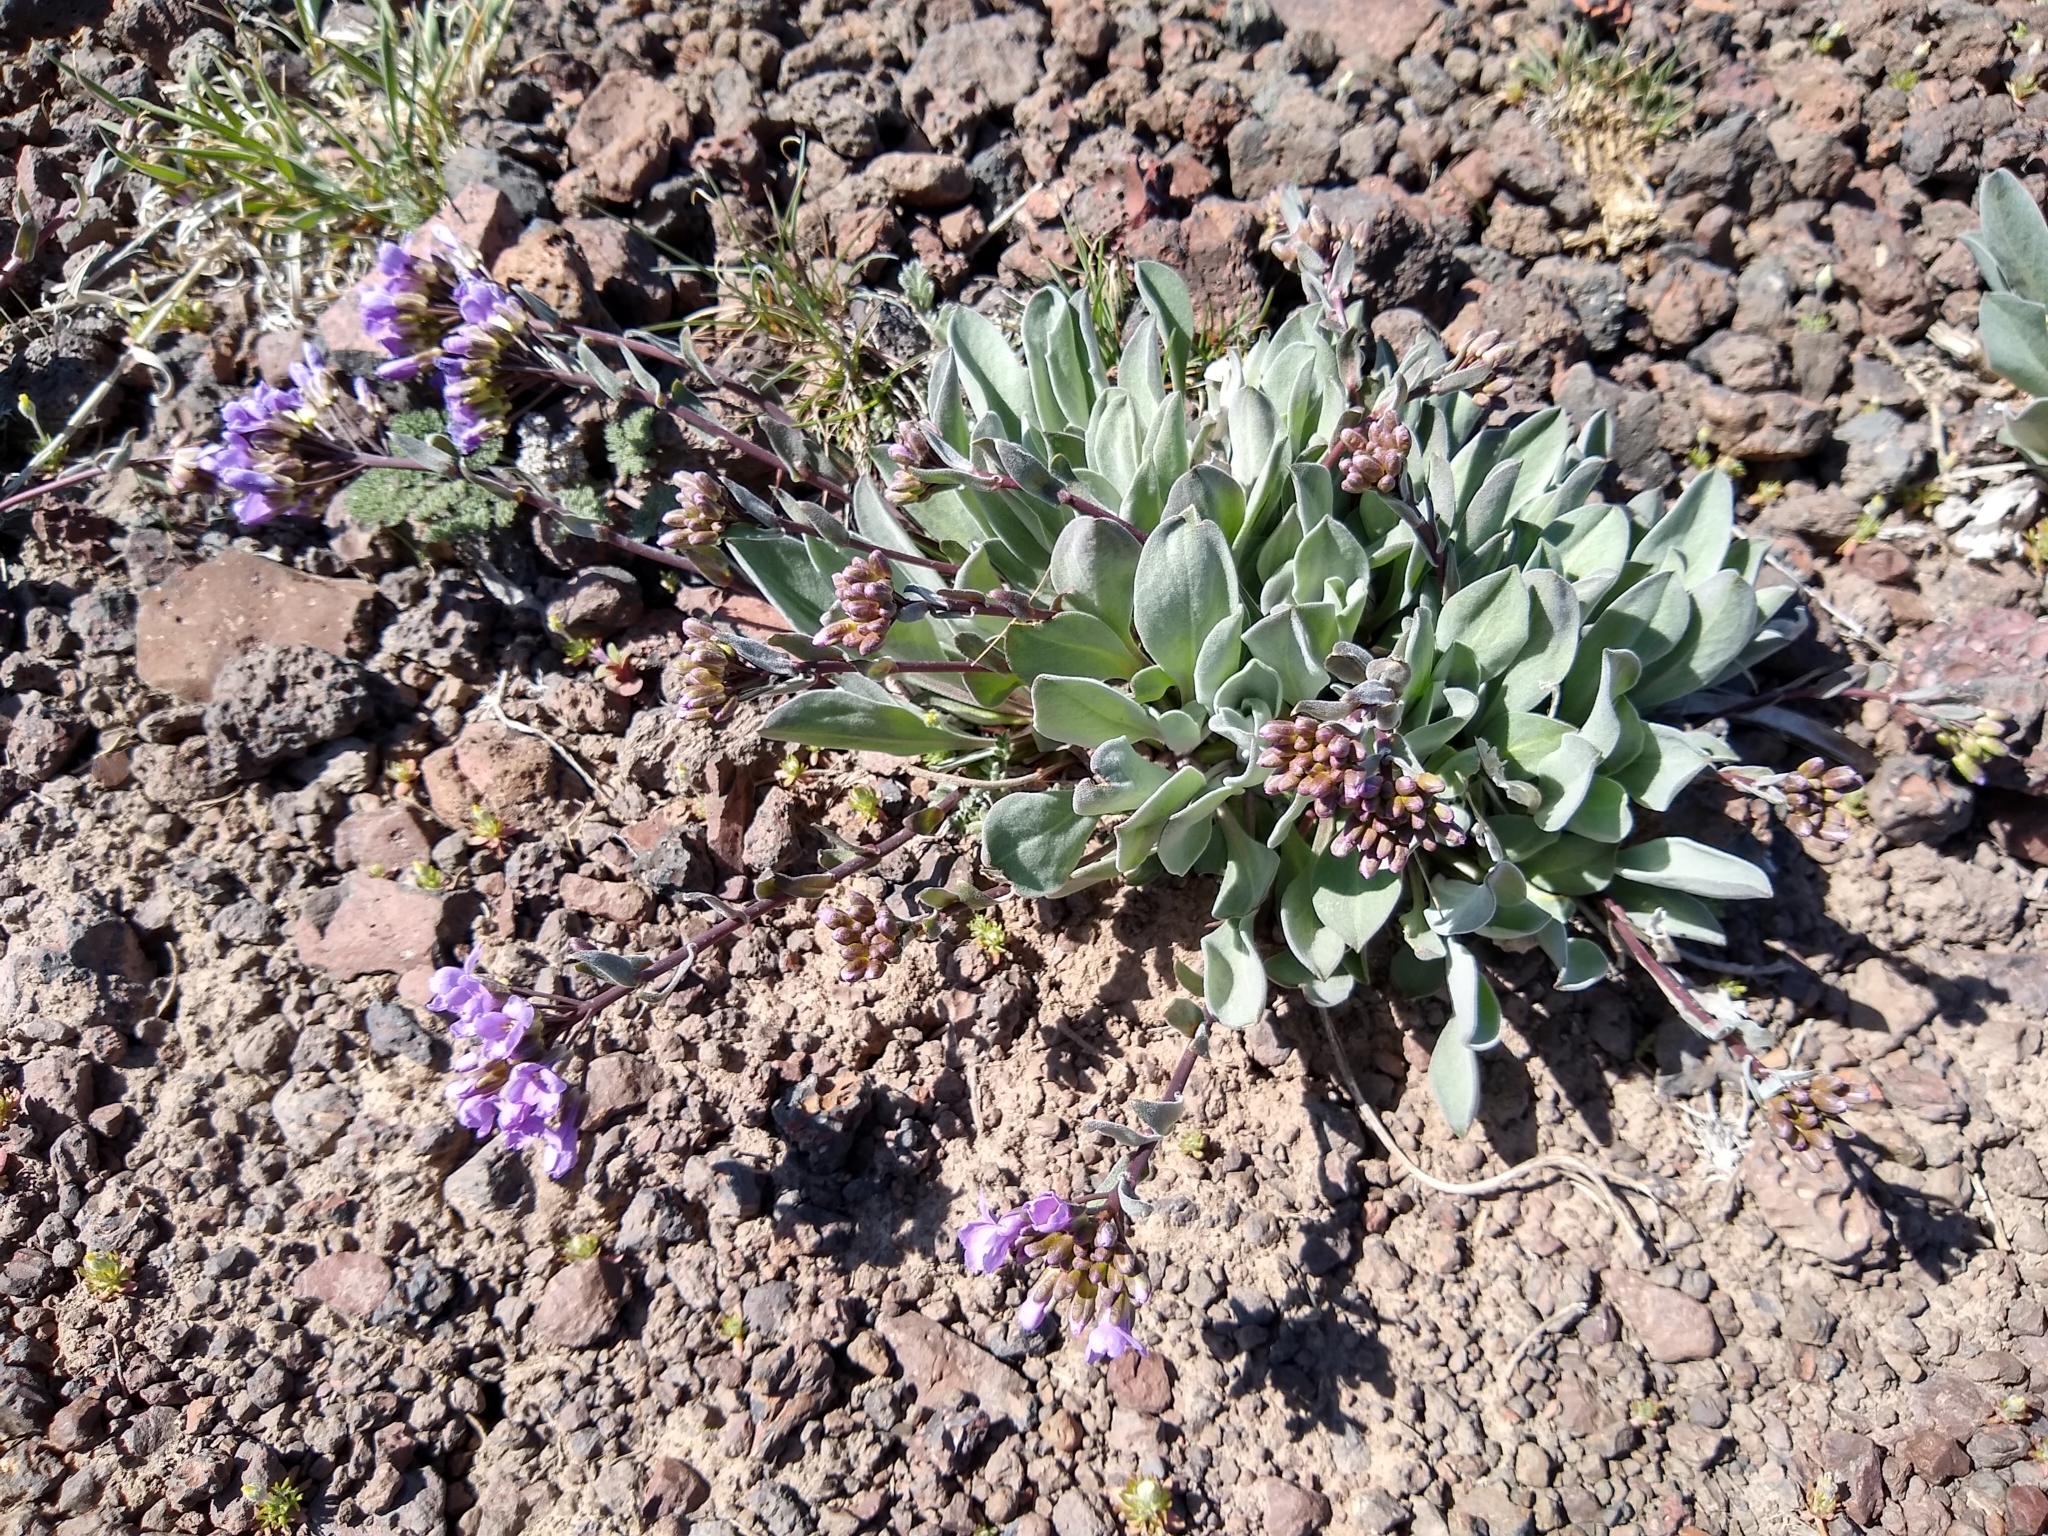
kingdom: Plantae
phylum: Tracheophyta
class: Magnoliopsida
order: Brassicales
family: Brassicaceae
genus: Phoenicaulis
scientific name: Phoenicaulis cheiranthoides
